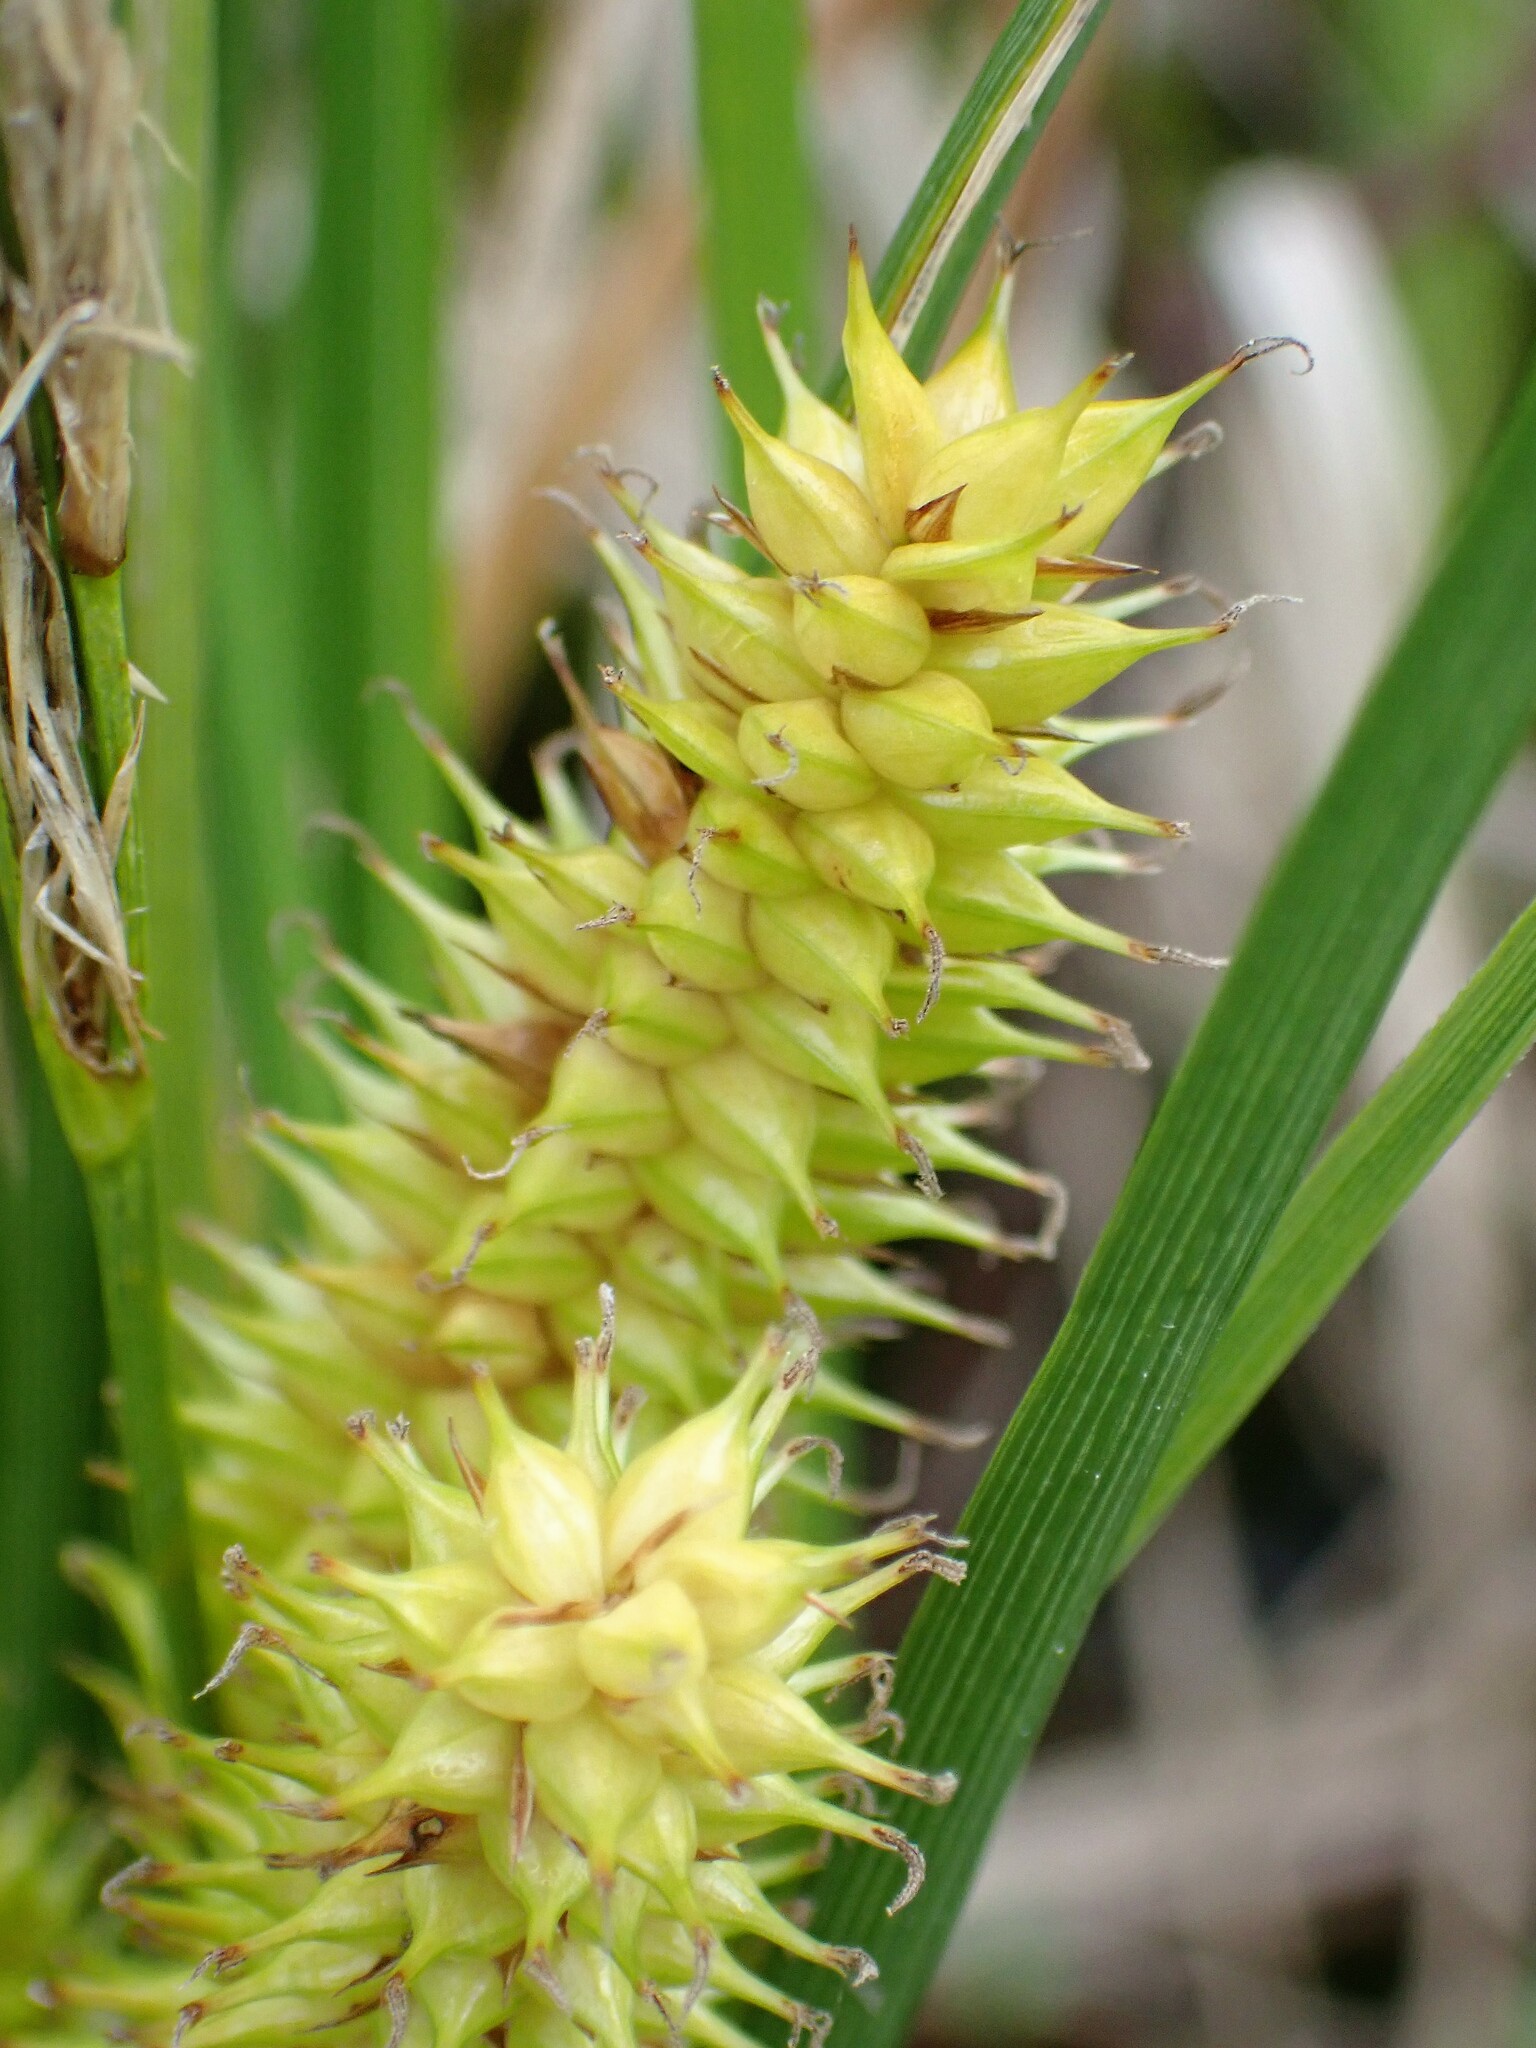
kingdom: Plantae
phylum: Tracheophyta
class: Liliopsida
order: Poales
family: Cyperaceae
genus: Carex
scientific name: Carex utriculata
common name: Beaked sedge
